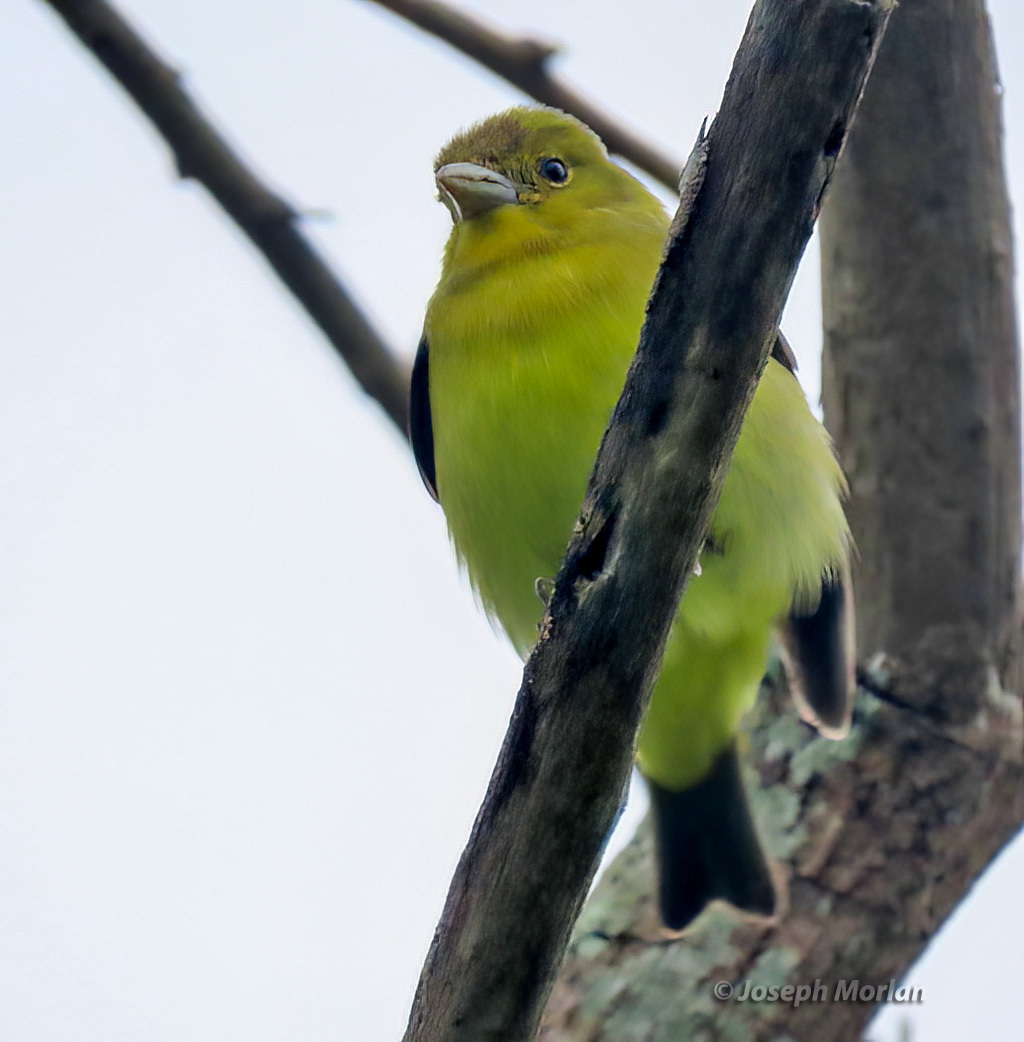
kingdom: Animalia
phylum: Chordata
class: Aves
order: Passeriformes
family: Cardinalidae
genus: Piranga
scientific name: Piranga olivacea
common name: Scarlet tanager
